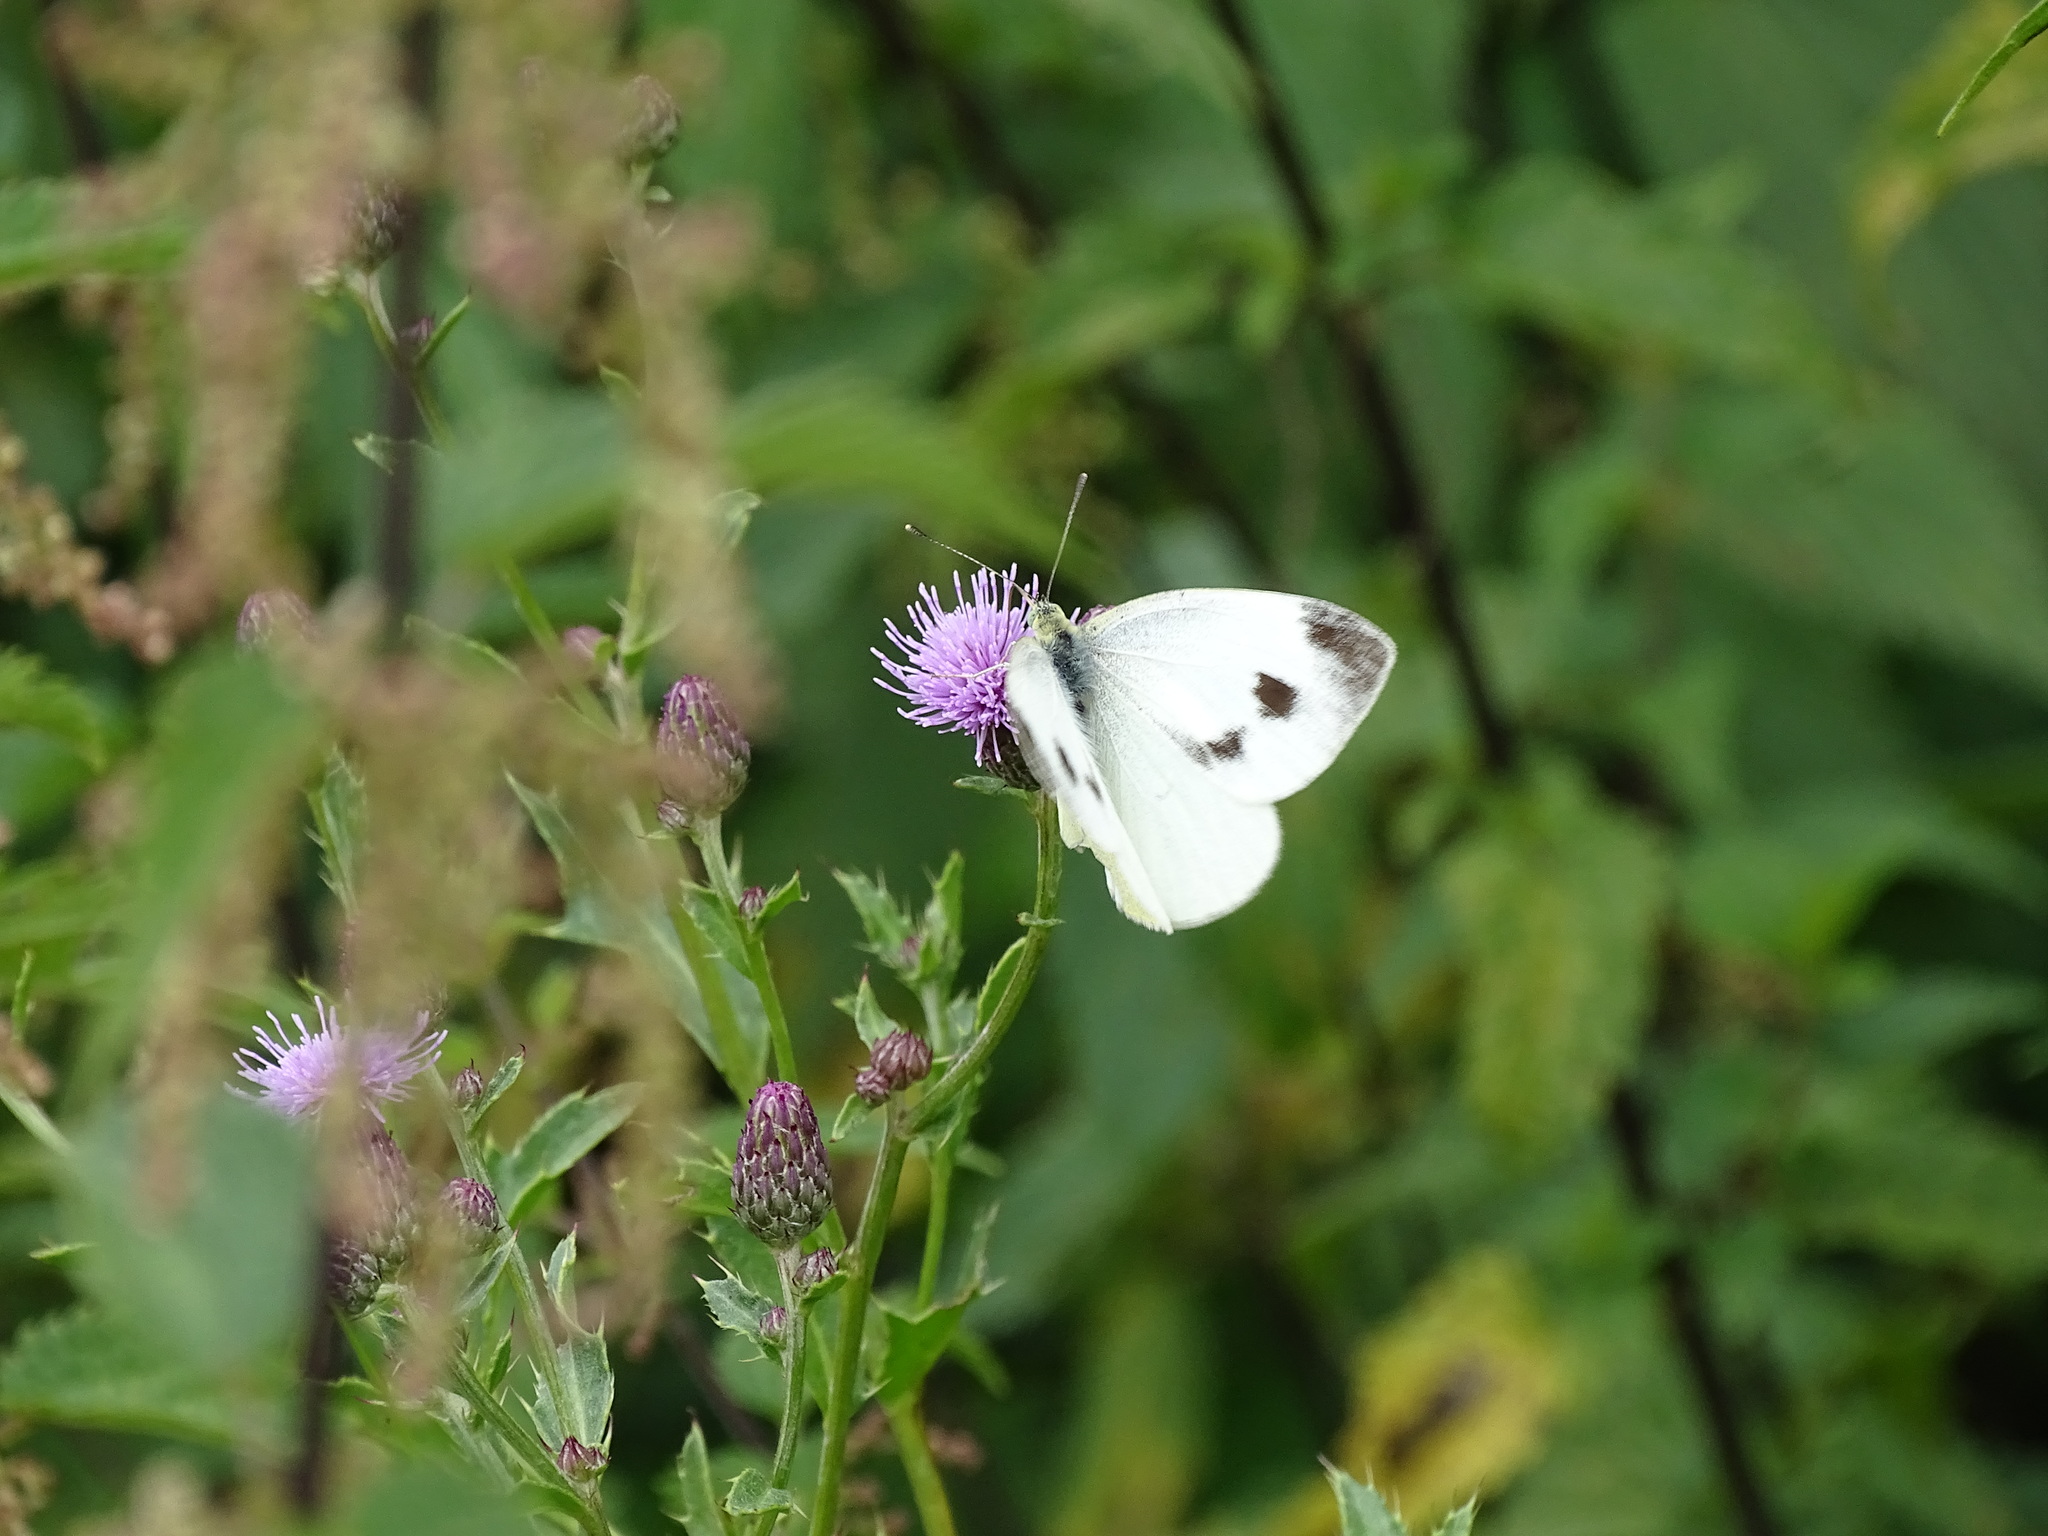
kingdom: Animalia
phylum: Arthropoda
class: Insecta
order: Lepidoptera
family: Pieridae
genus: Pieris
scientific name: Pieris mannii
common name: Southern small white
